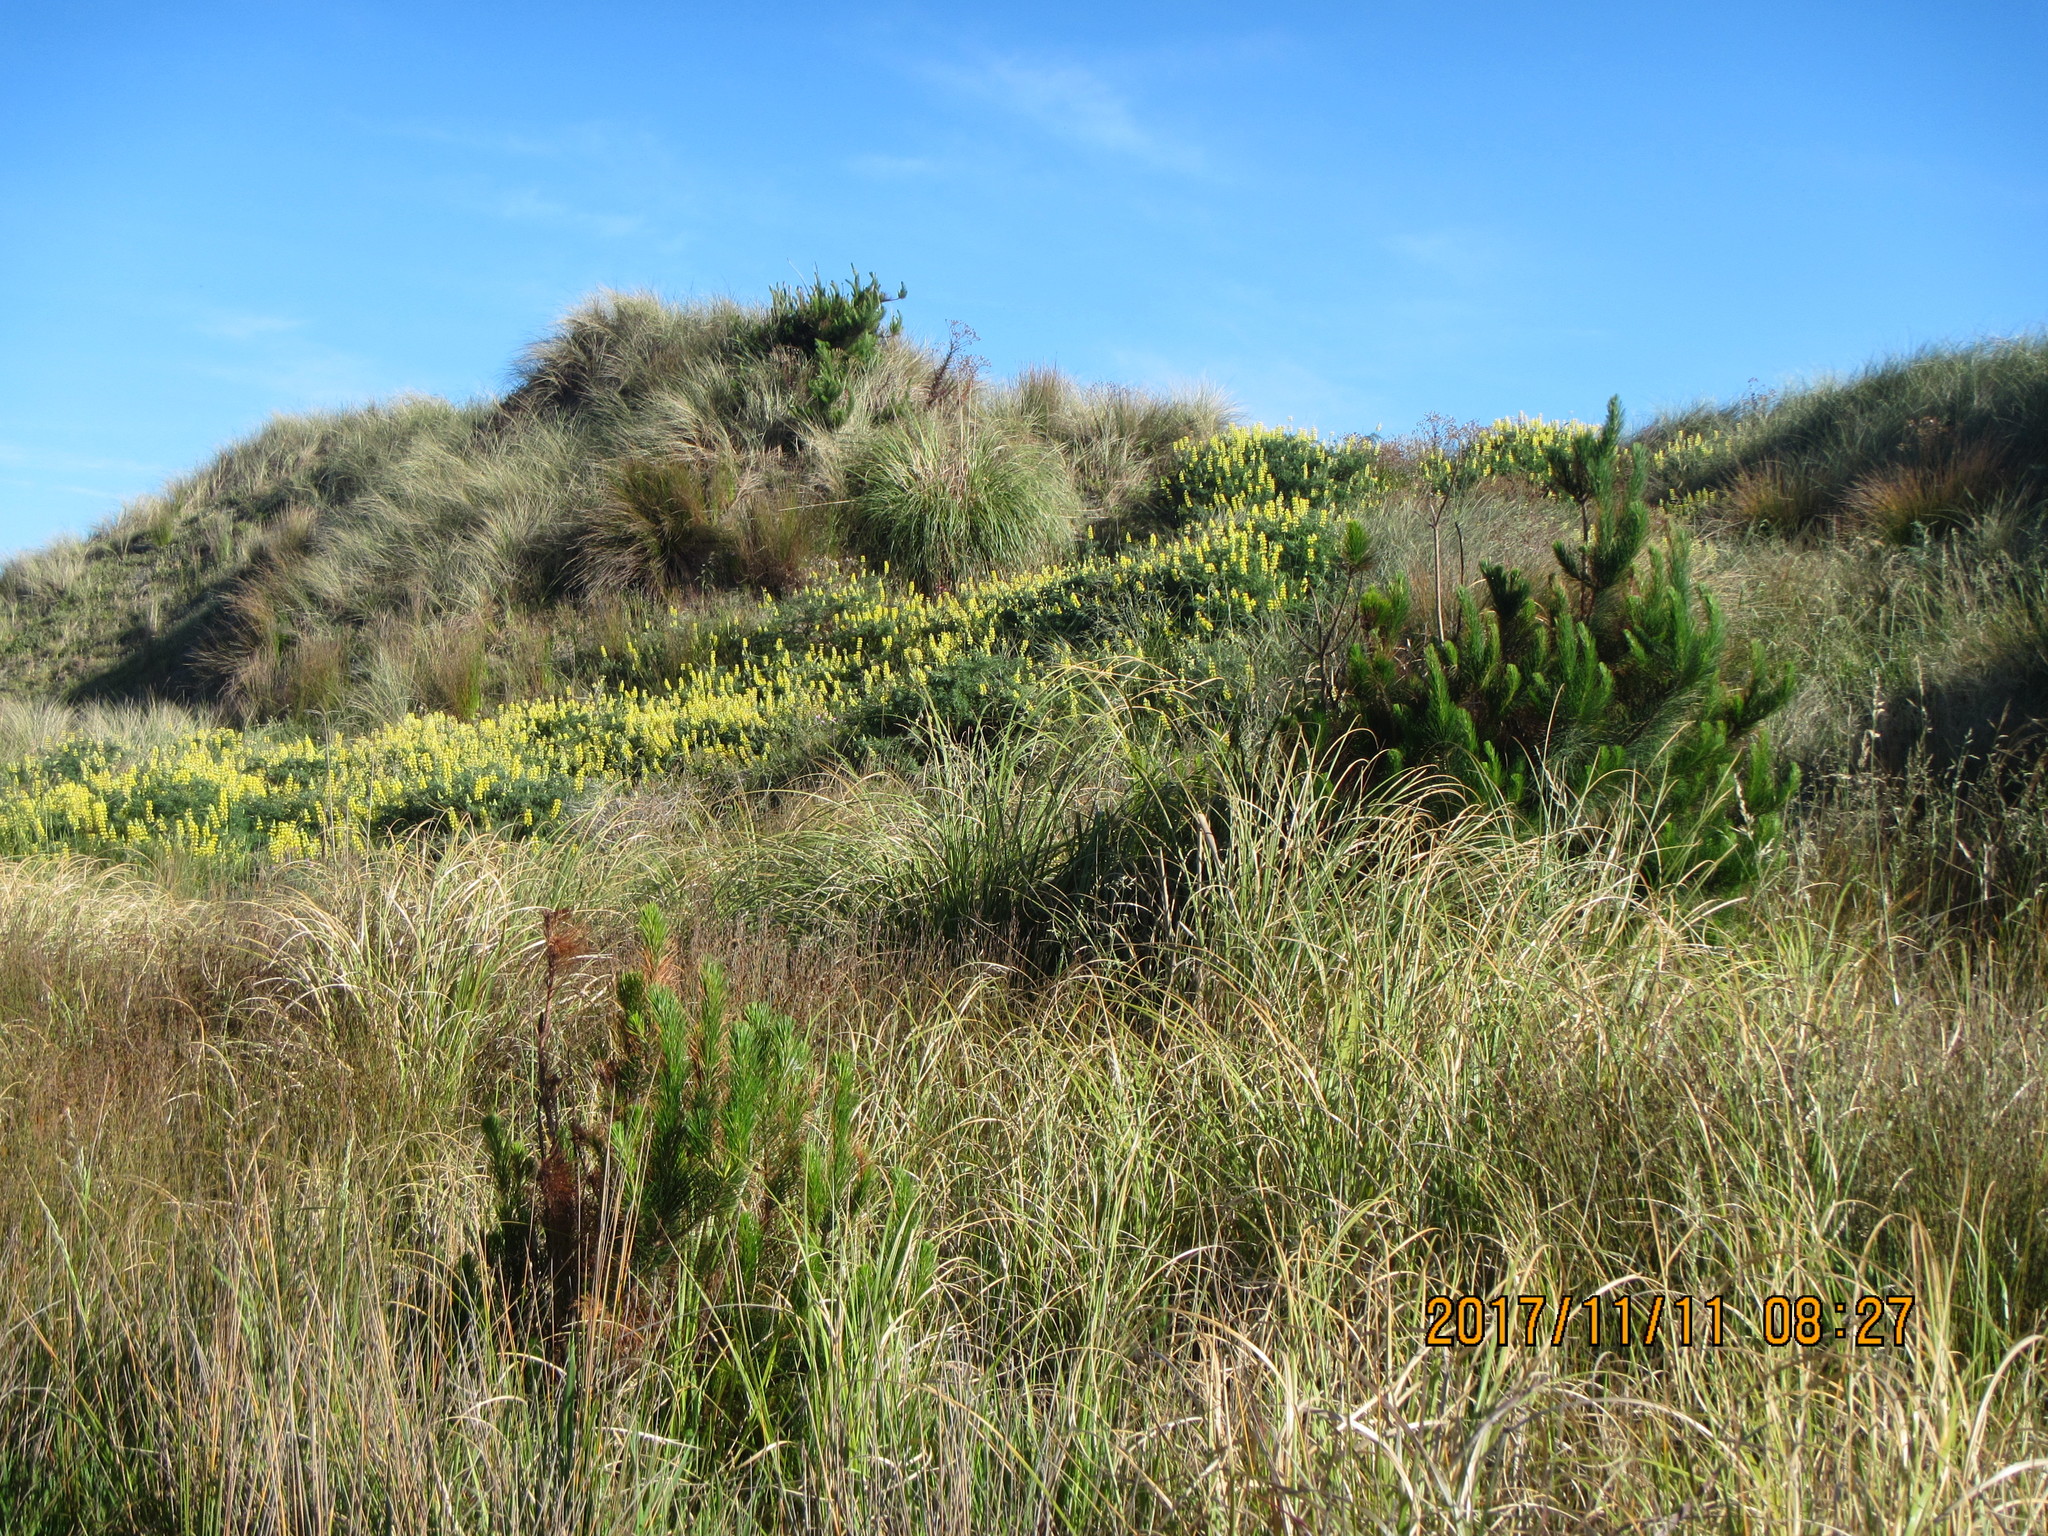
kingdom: Plantae
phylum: Tracheophyta
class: Pinopsida
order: Pinales
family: Pinaceae
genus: Pinus
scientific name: Pinus radiata
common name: Monterey pine
